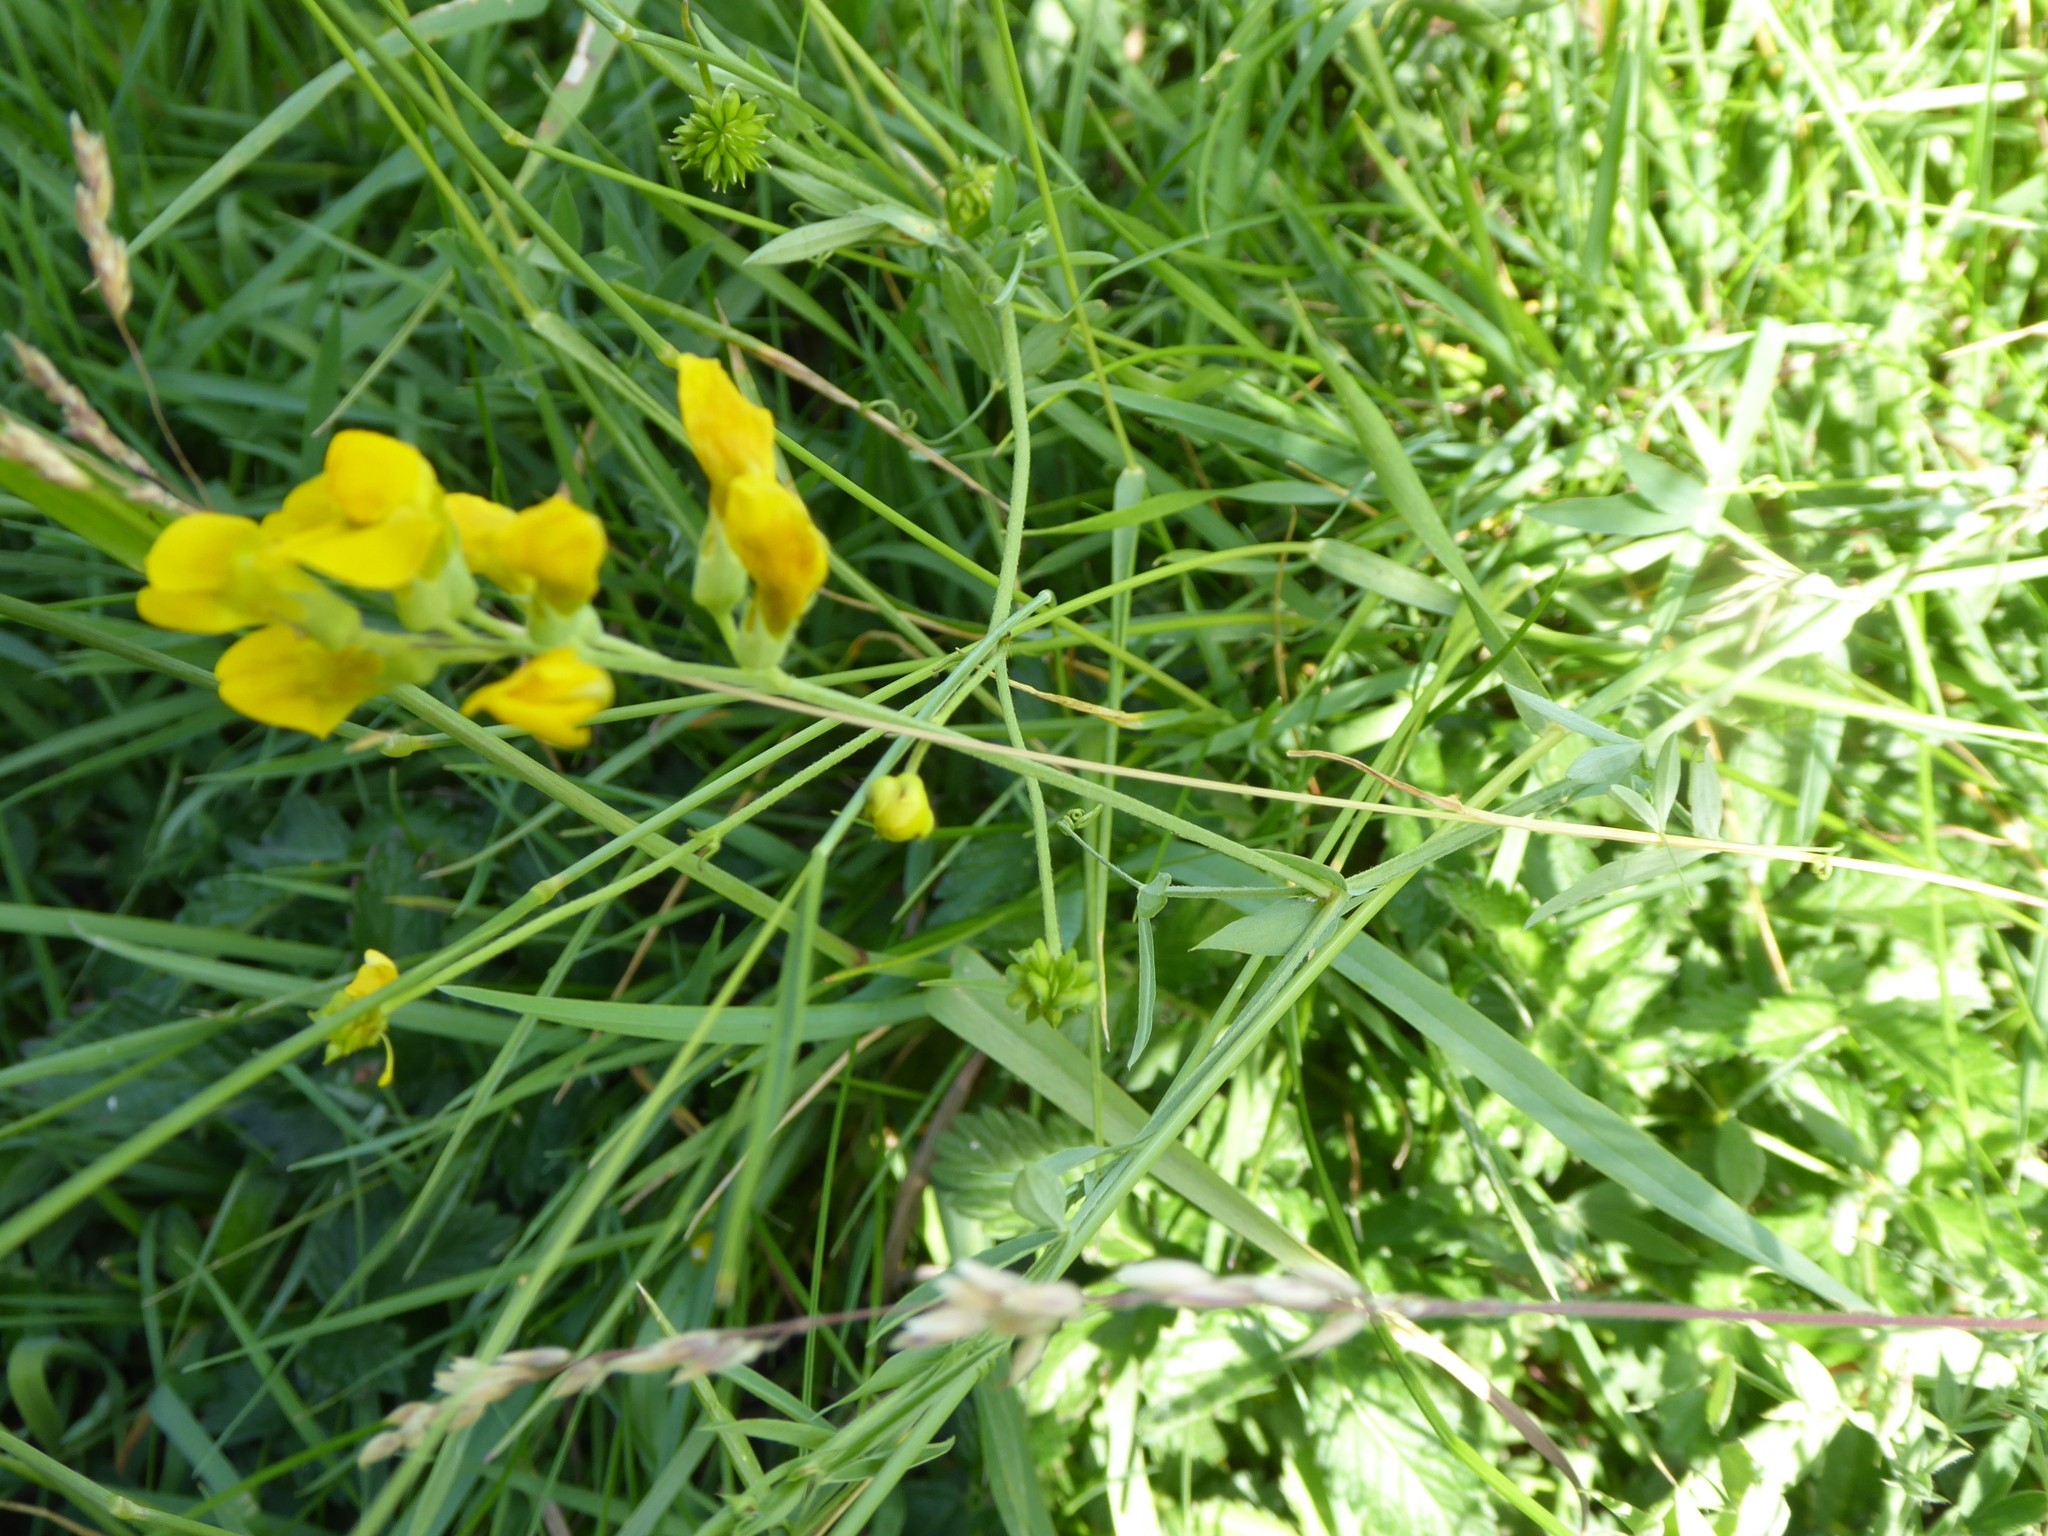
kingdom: Plantae
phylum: Tracheophyta
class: Magnoliopsida
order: Fabales
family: Fabaceae
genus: Lathyrus
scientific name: Lathyrus pratensis
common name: Meadow vetchling
